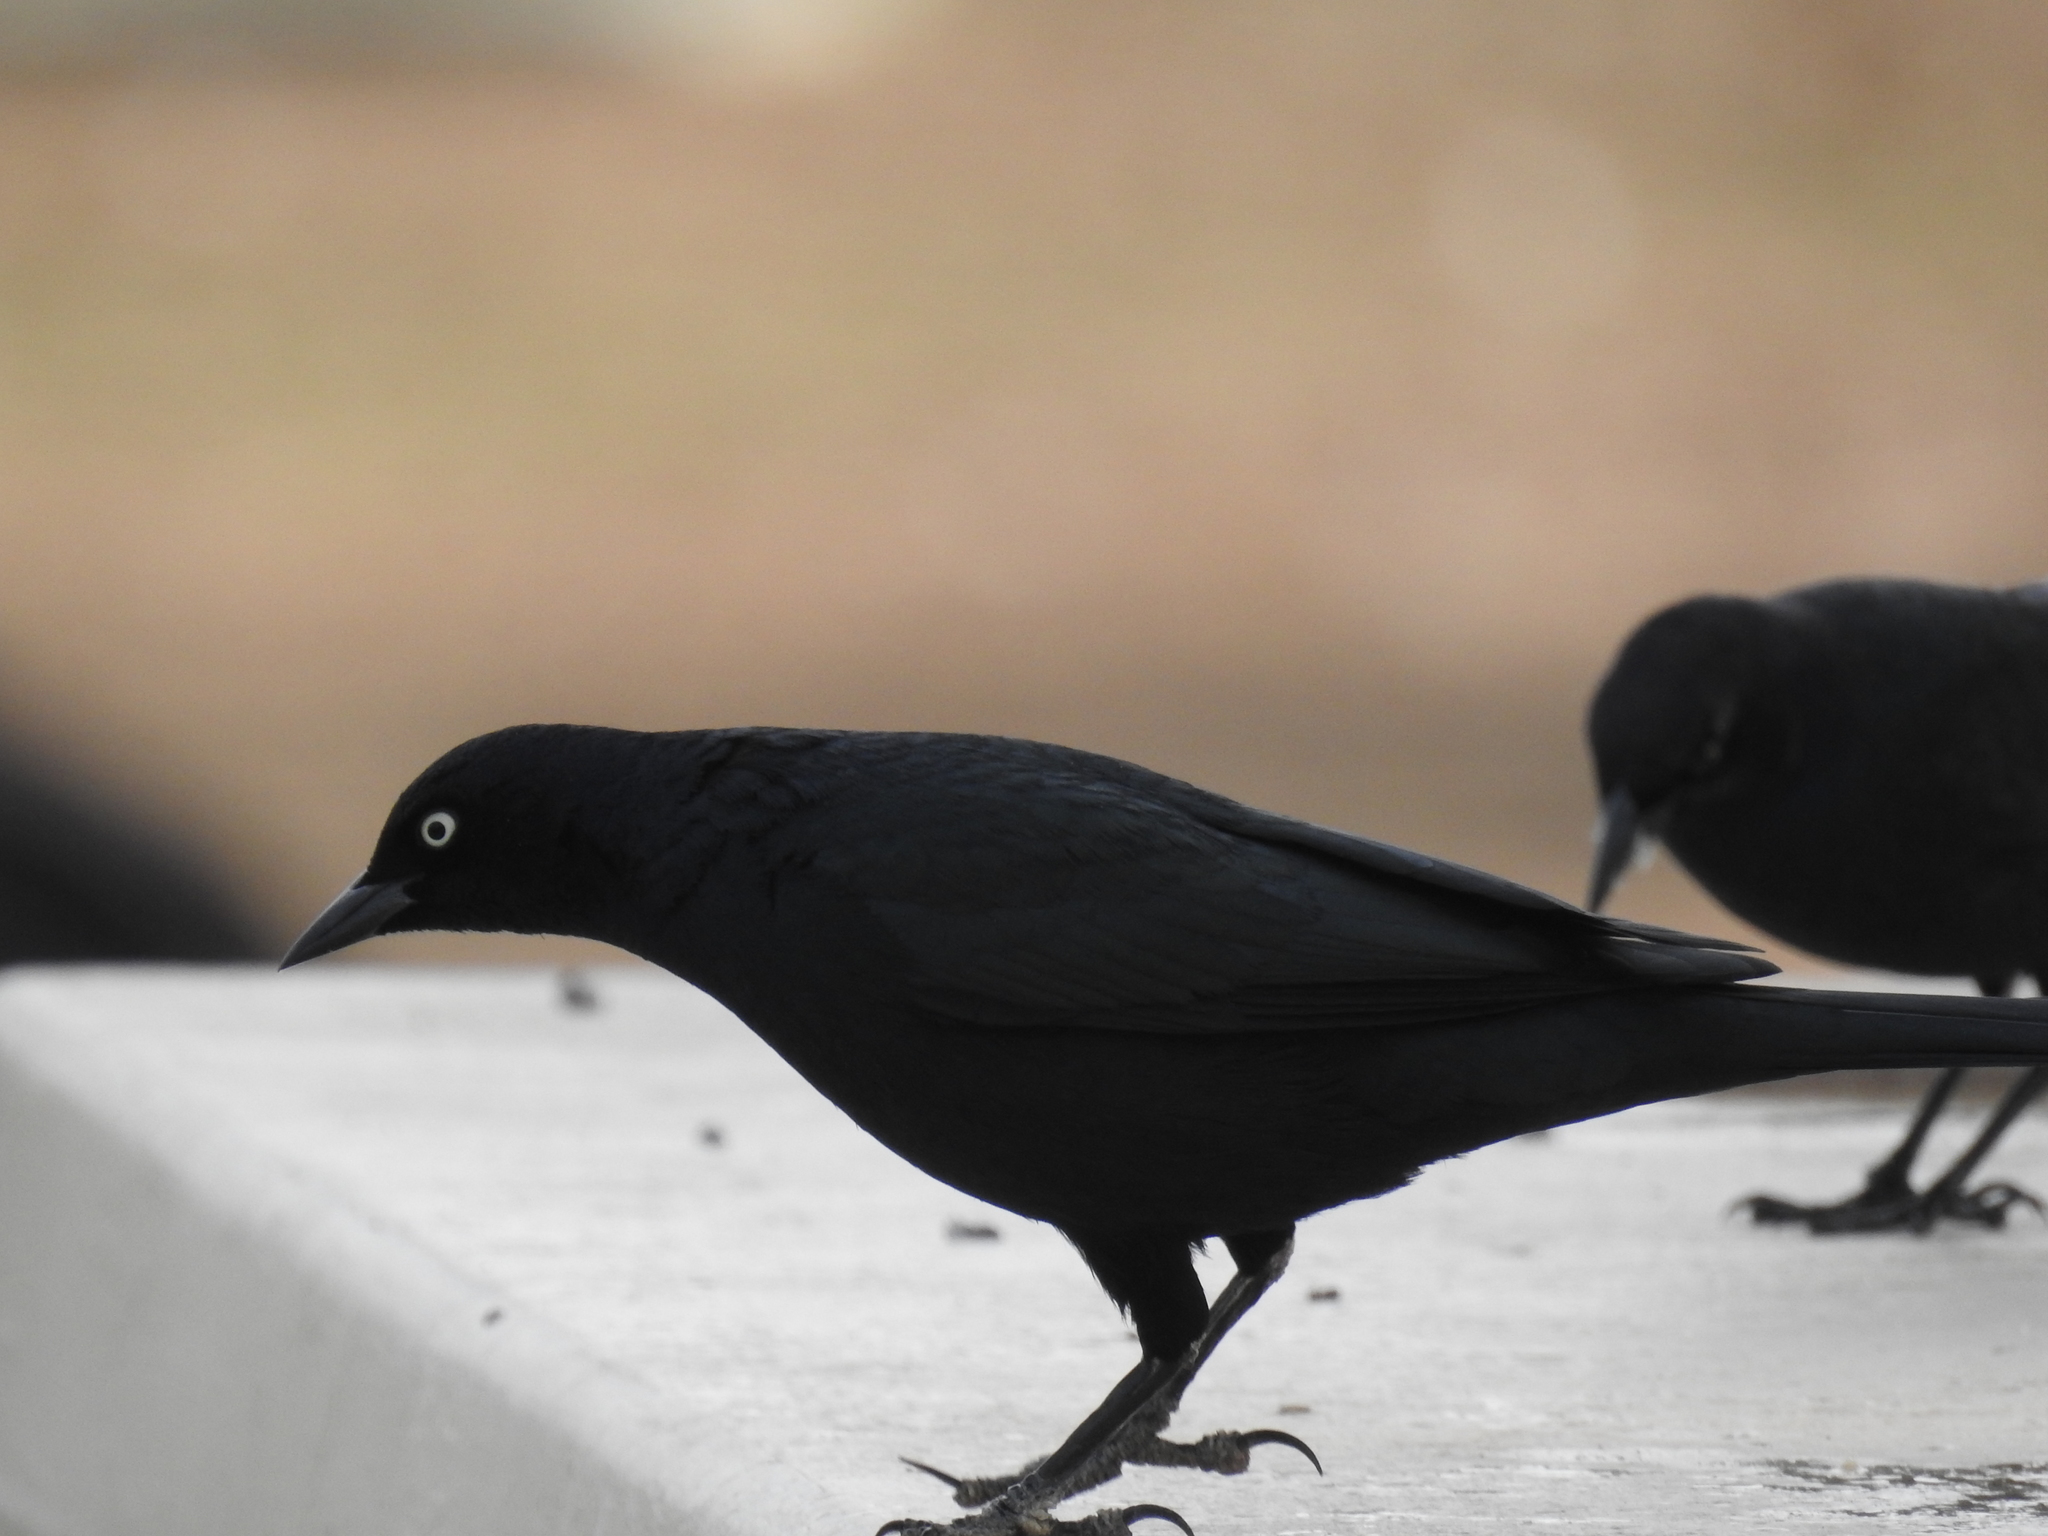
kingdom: Animalia
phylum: Chordata
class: Aves
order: Passeriformes
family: Icteridae
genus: Euphagus
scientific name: Euphagus cyanocephalus
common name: Brewer's blackbird
